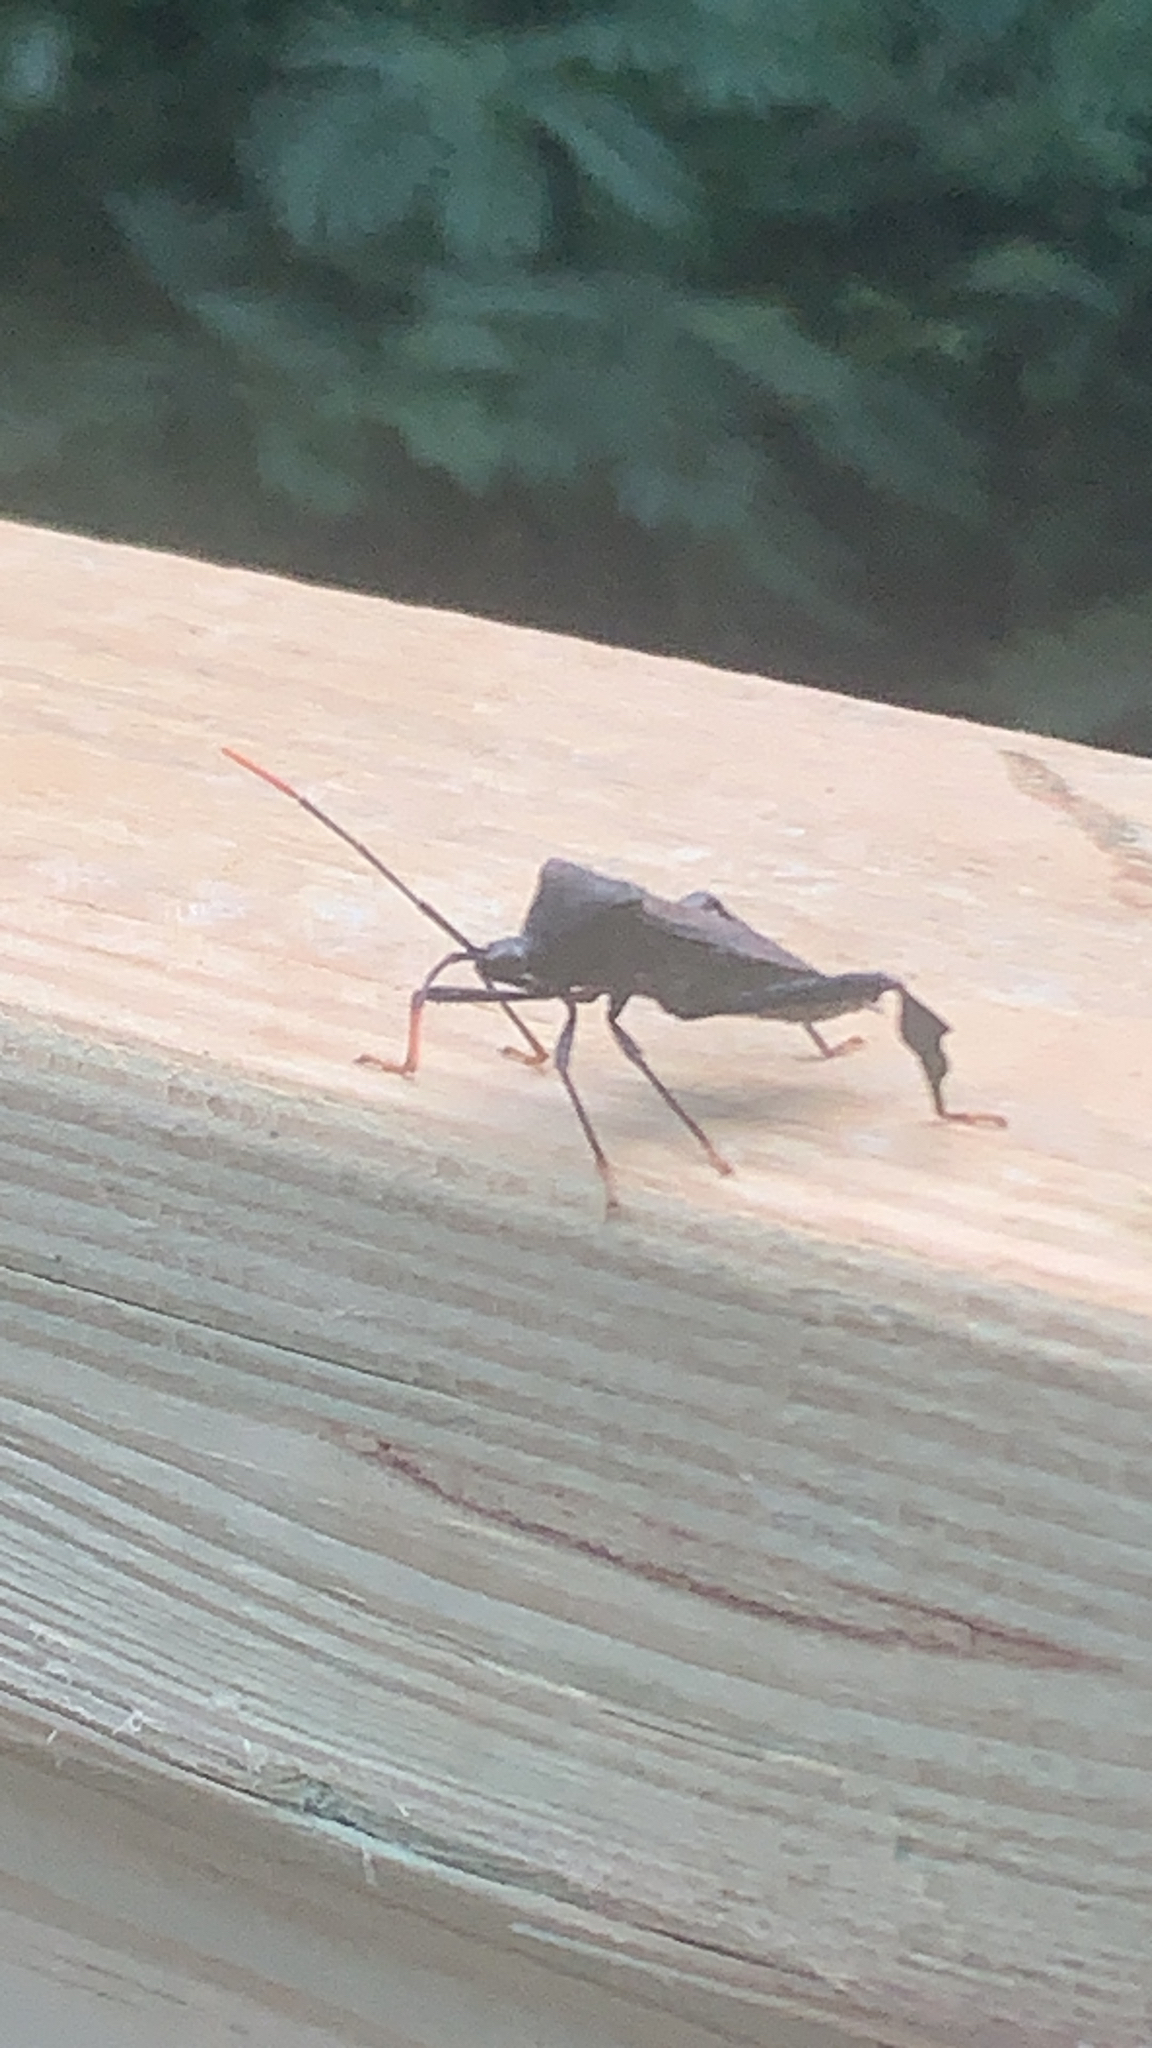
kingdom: Animalia
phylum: Arthropoda
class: Insecta
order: Hemiptera
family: Coreidae
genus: Acanthocephala
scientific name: Acanthocephala terminalis
